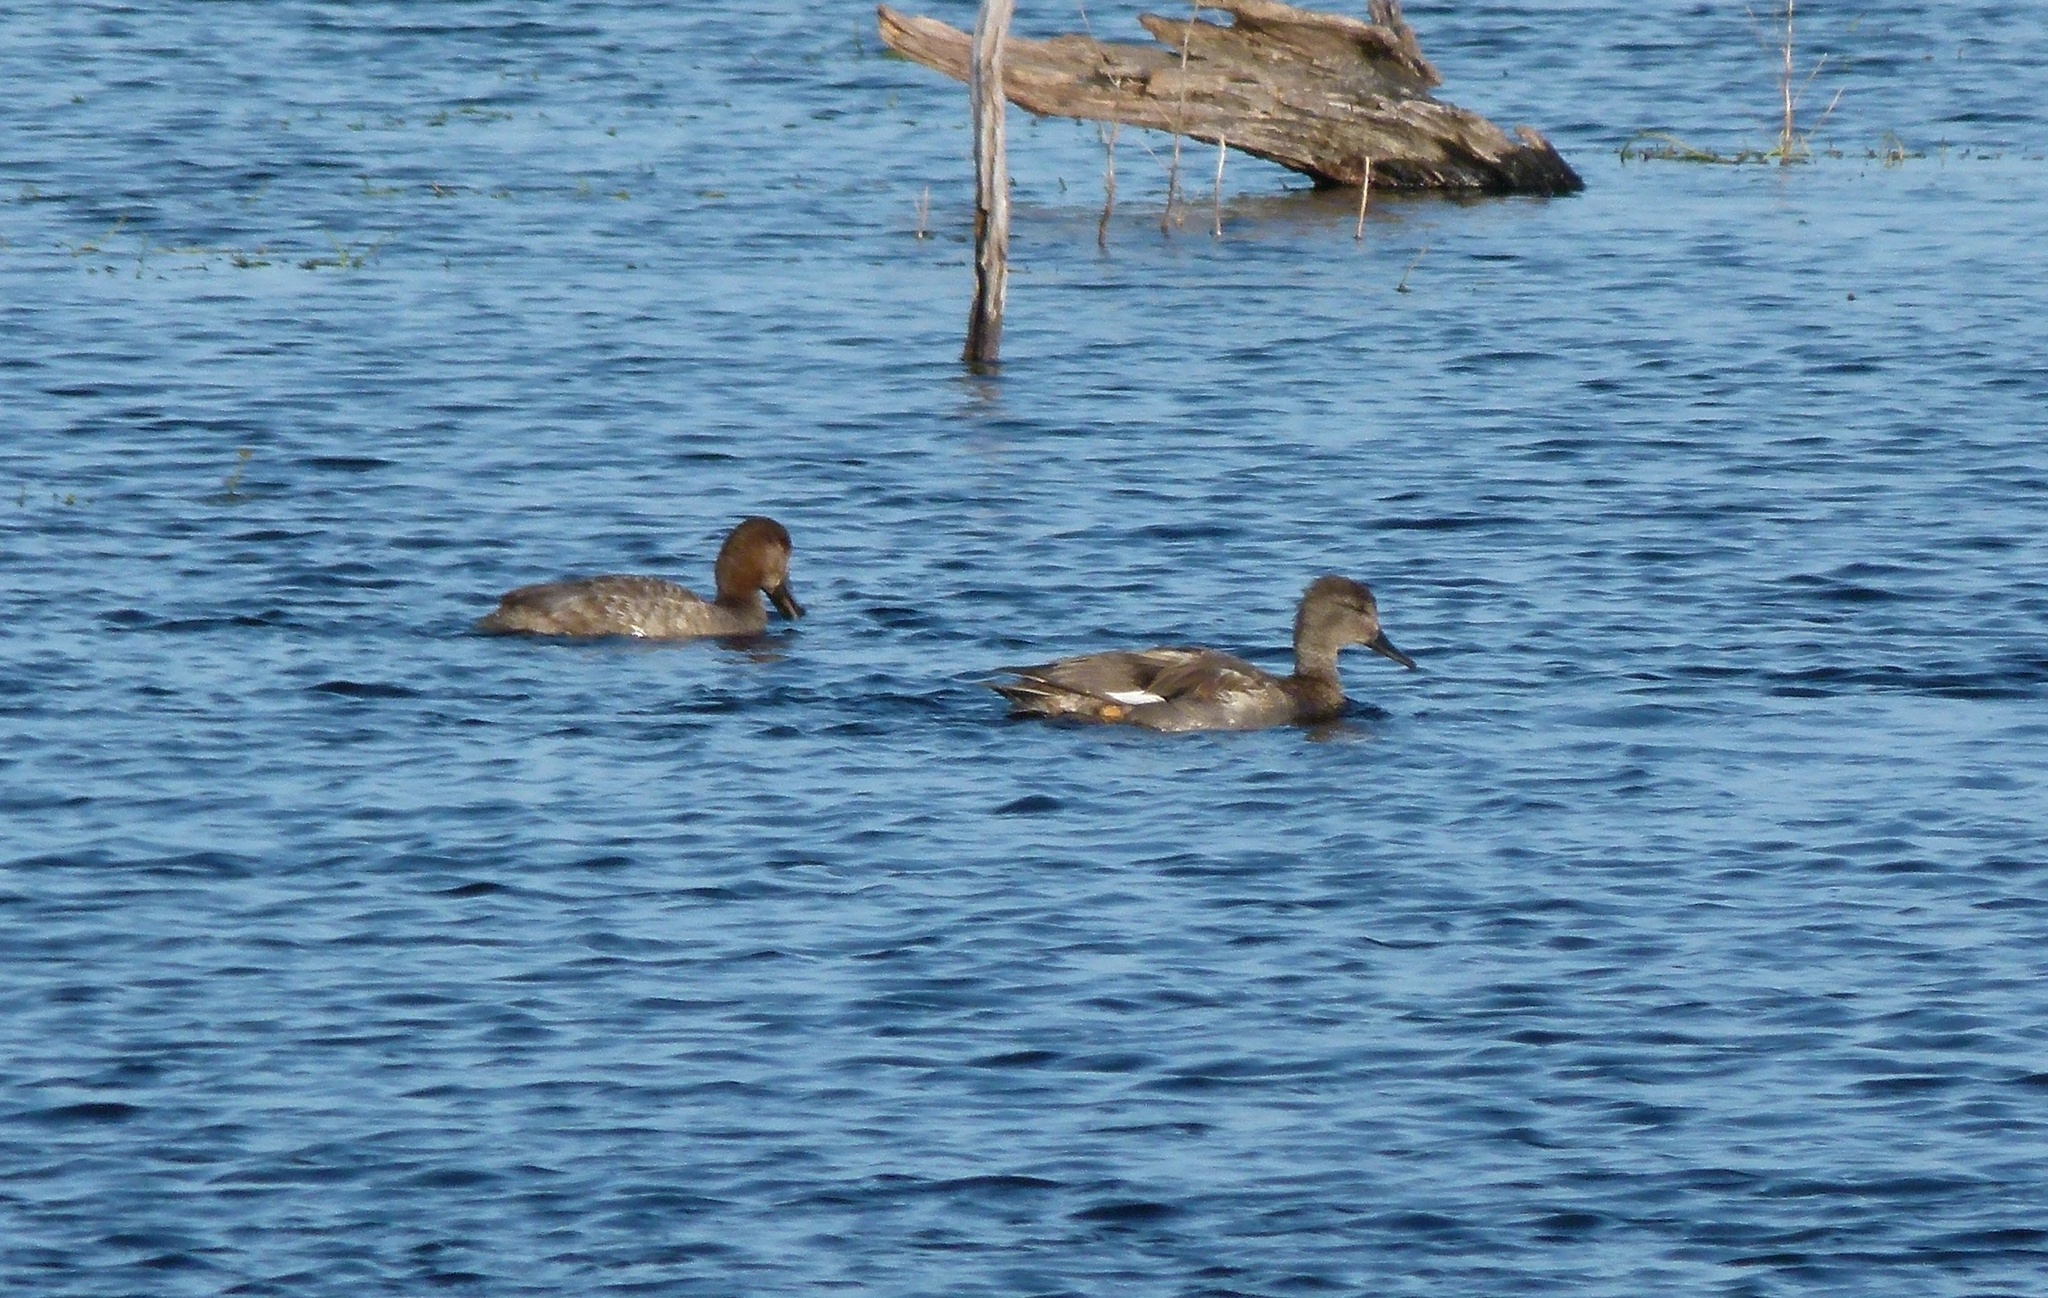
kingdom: Animalia
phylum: Chordata
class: Aves
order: Anseriformes
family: Anatidae
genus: Mareca
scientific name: Mareca strepera
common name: Gadwall
